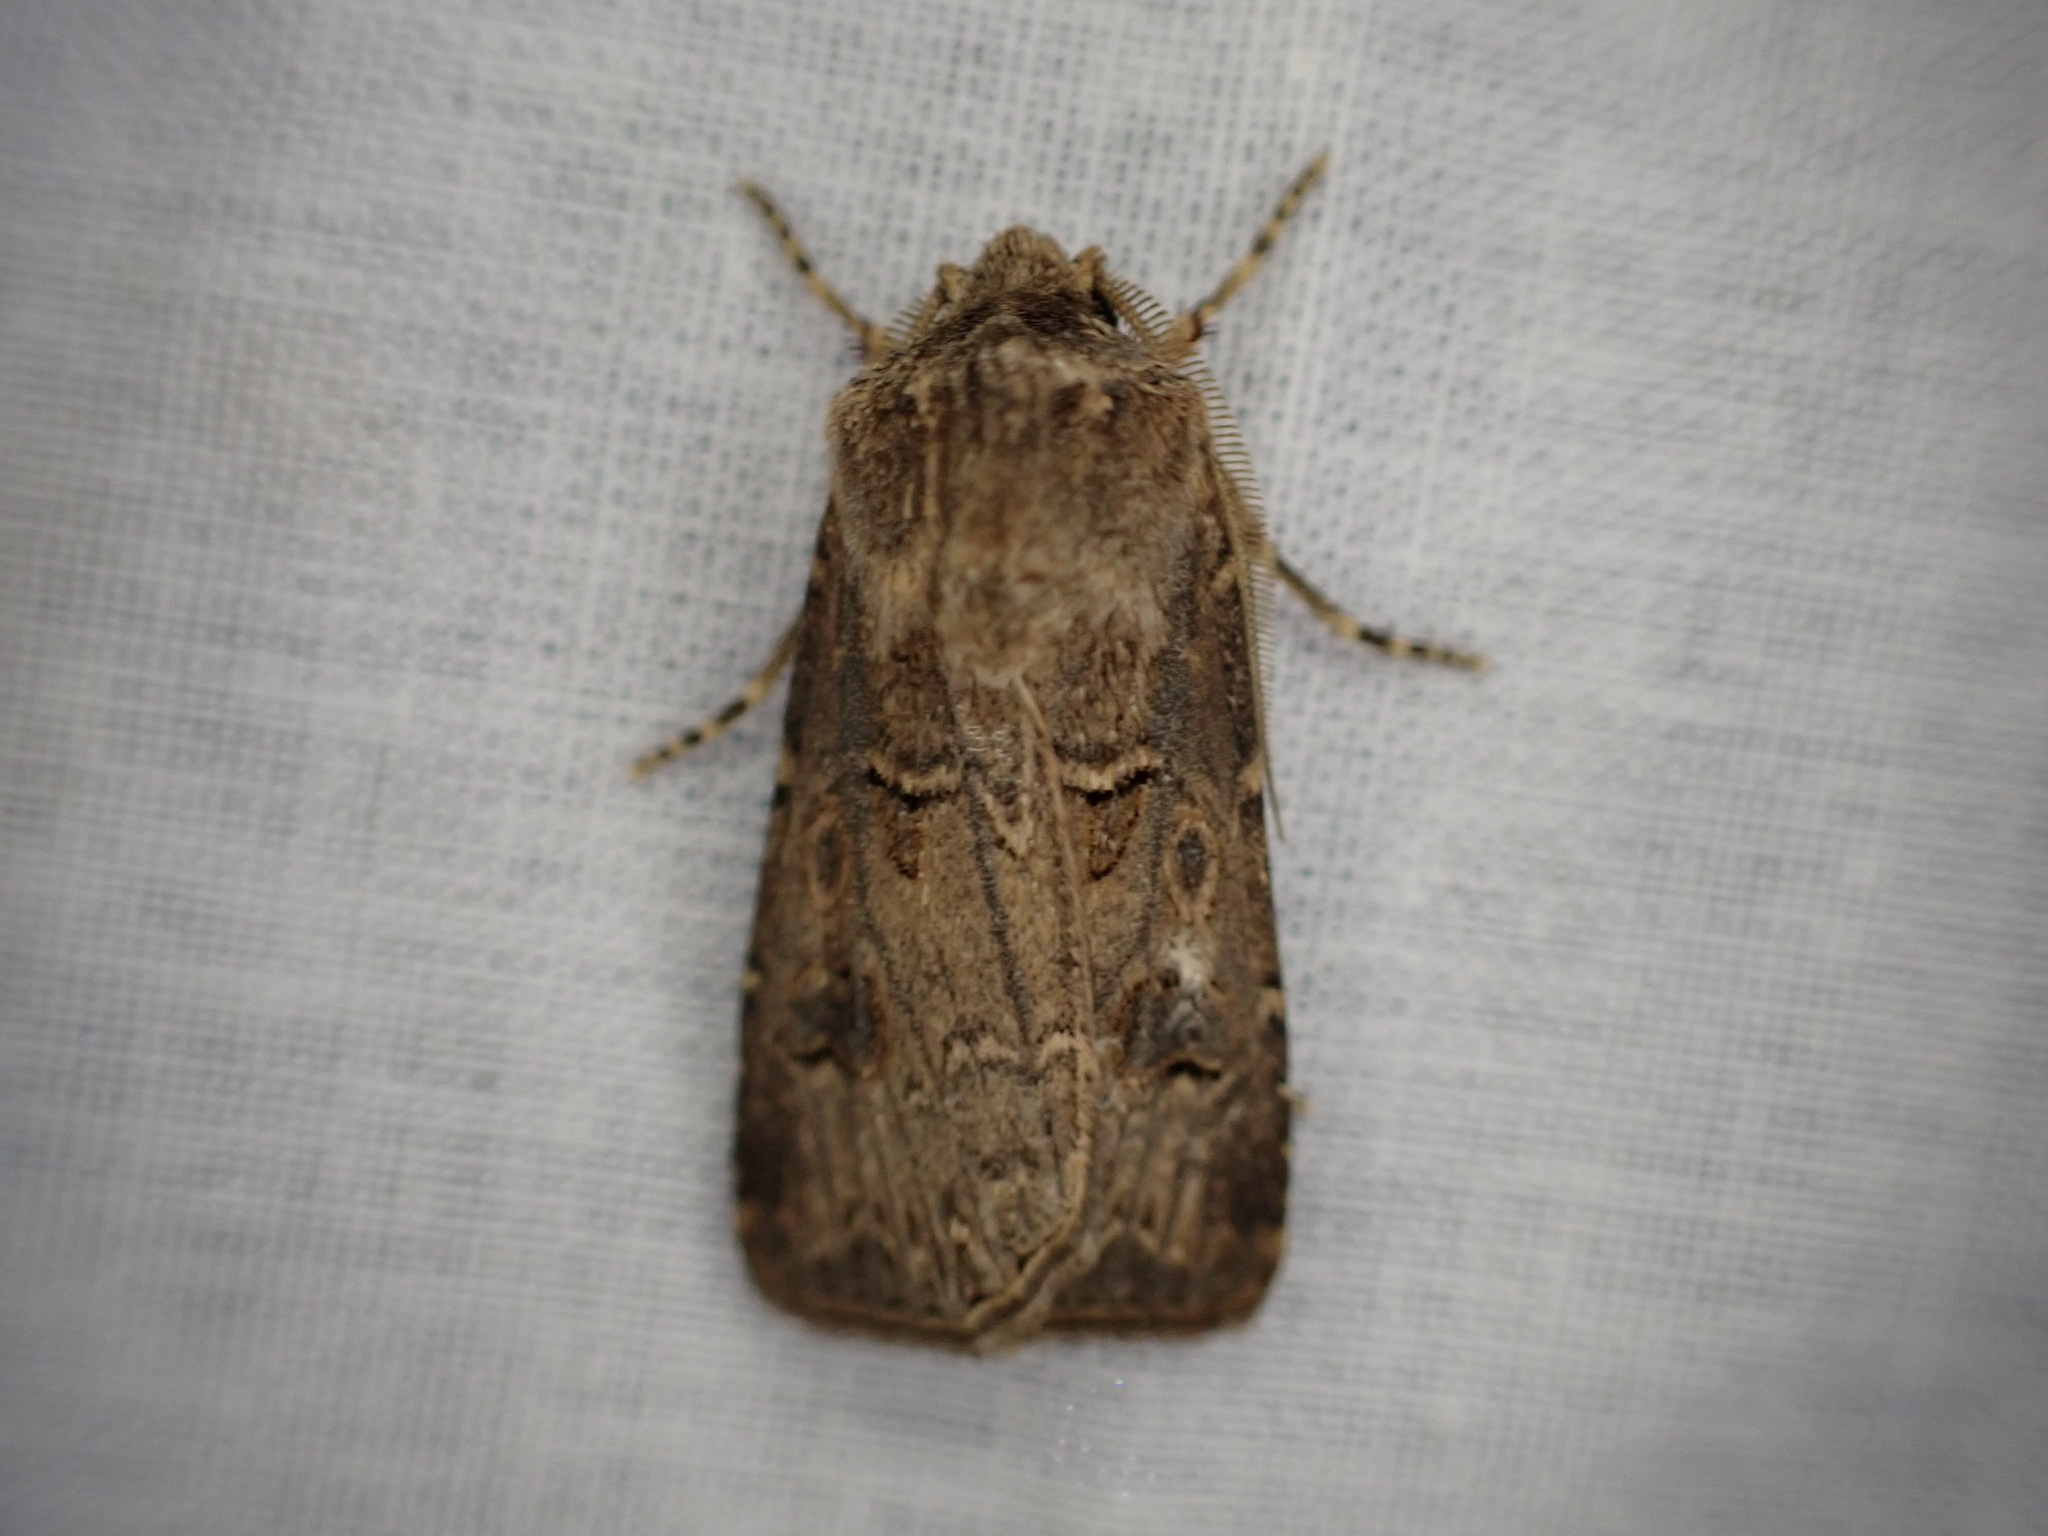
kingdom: Animalia
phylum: Arthropoda
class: Insecta
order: Lepidoptera
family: Noctuidae
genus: Agrotis
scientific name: Agrotis bigramma
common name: Great dart
